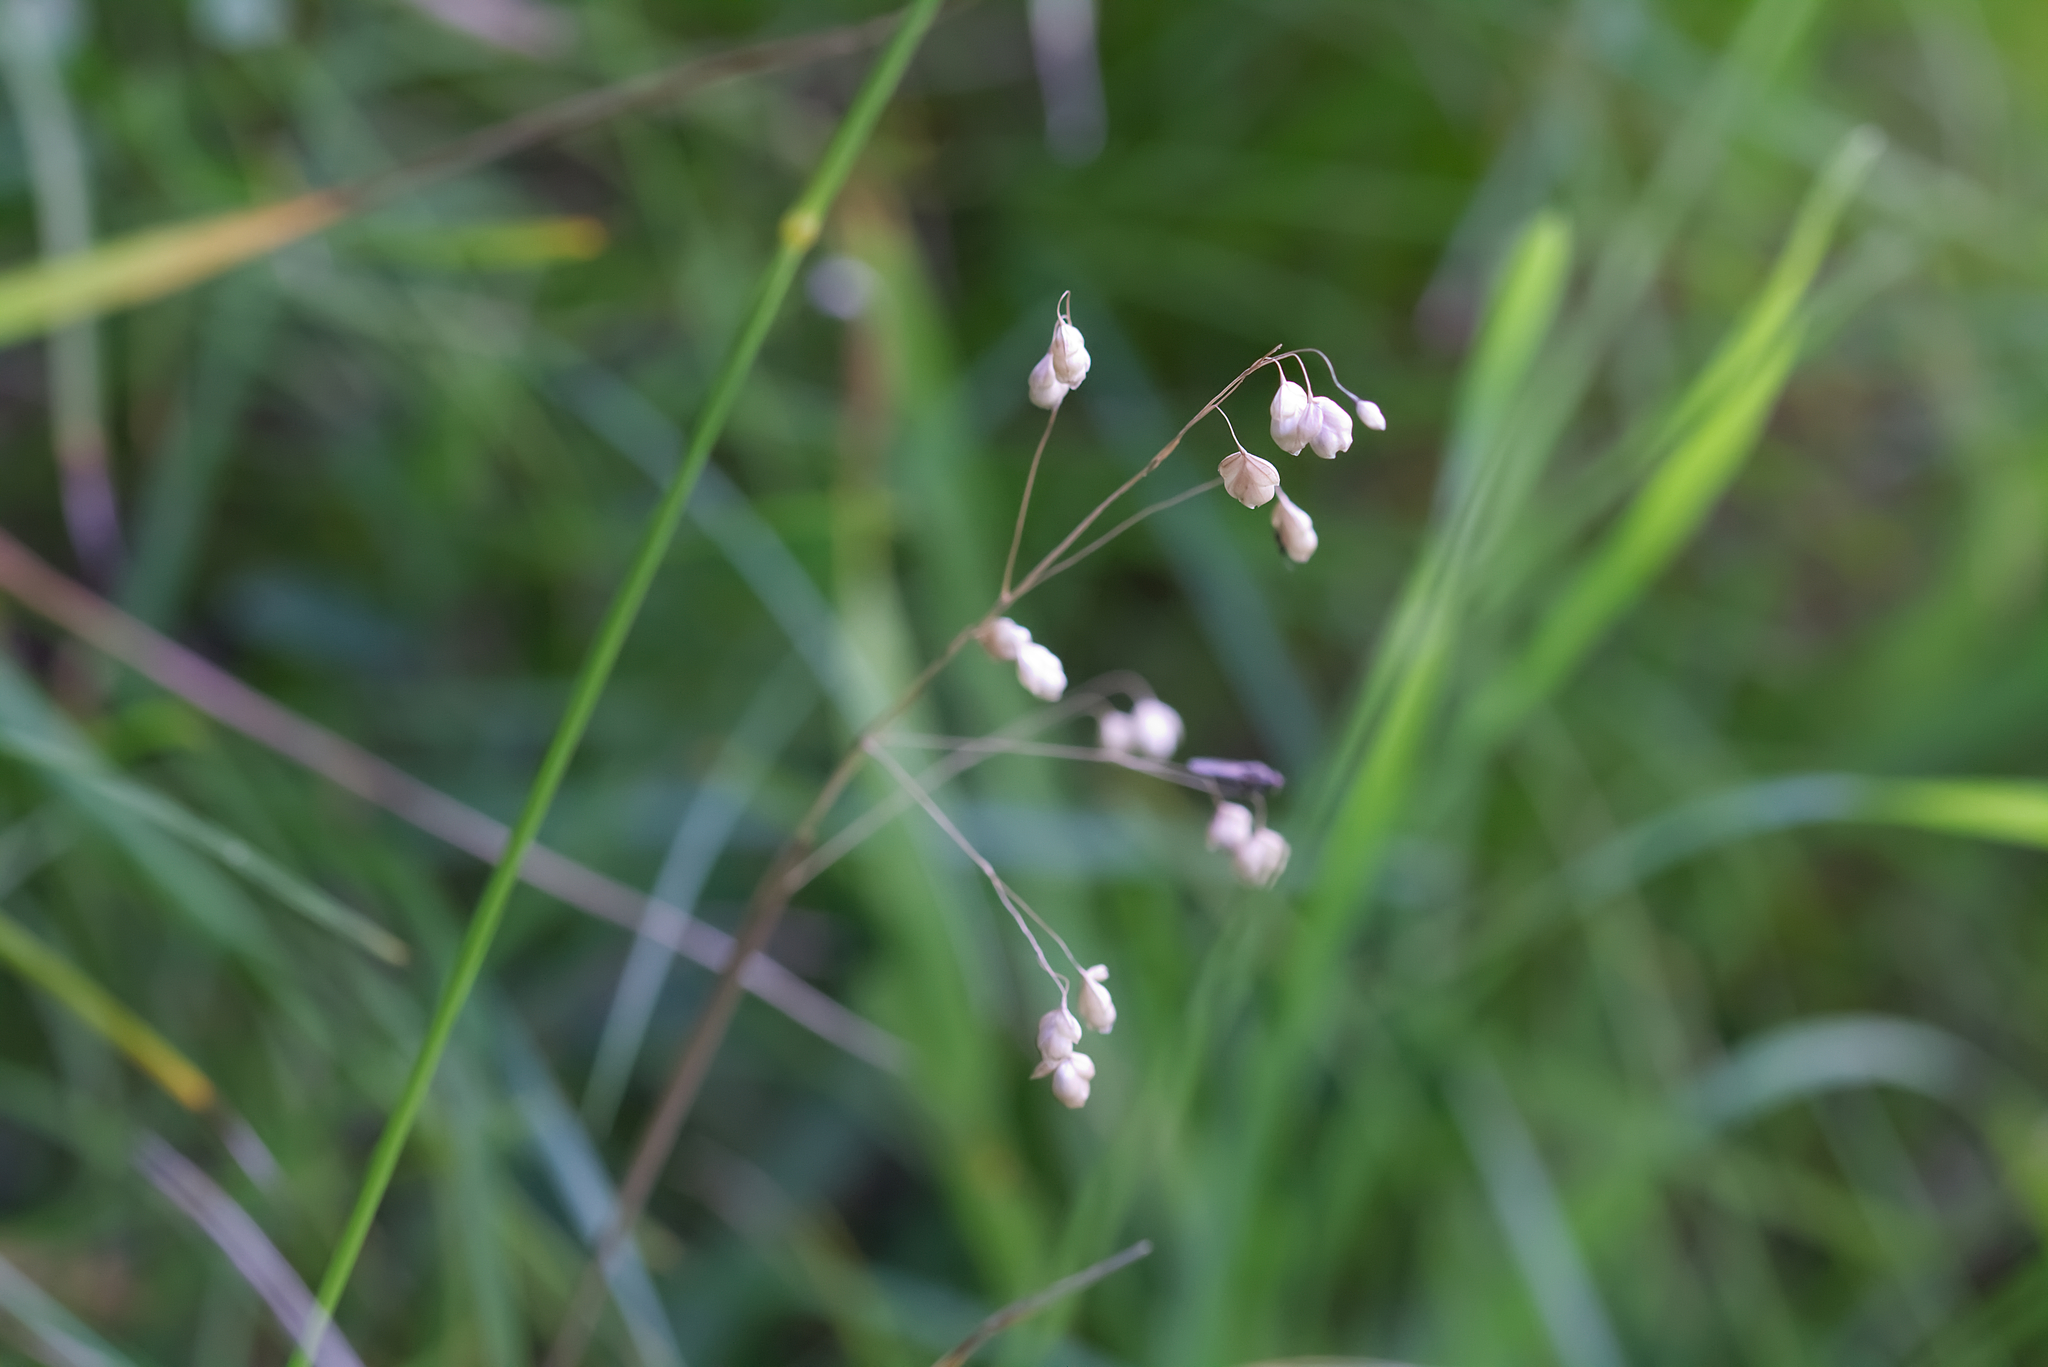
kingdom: Plantae
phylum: Tracheophyta
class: Liliopsida
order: Poales
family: Poaceae
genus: Briza
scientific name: Briza media
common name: Quaking grass
